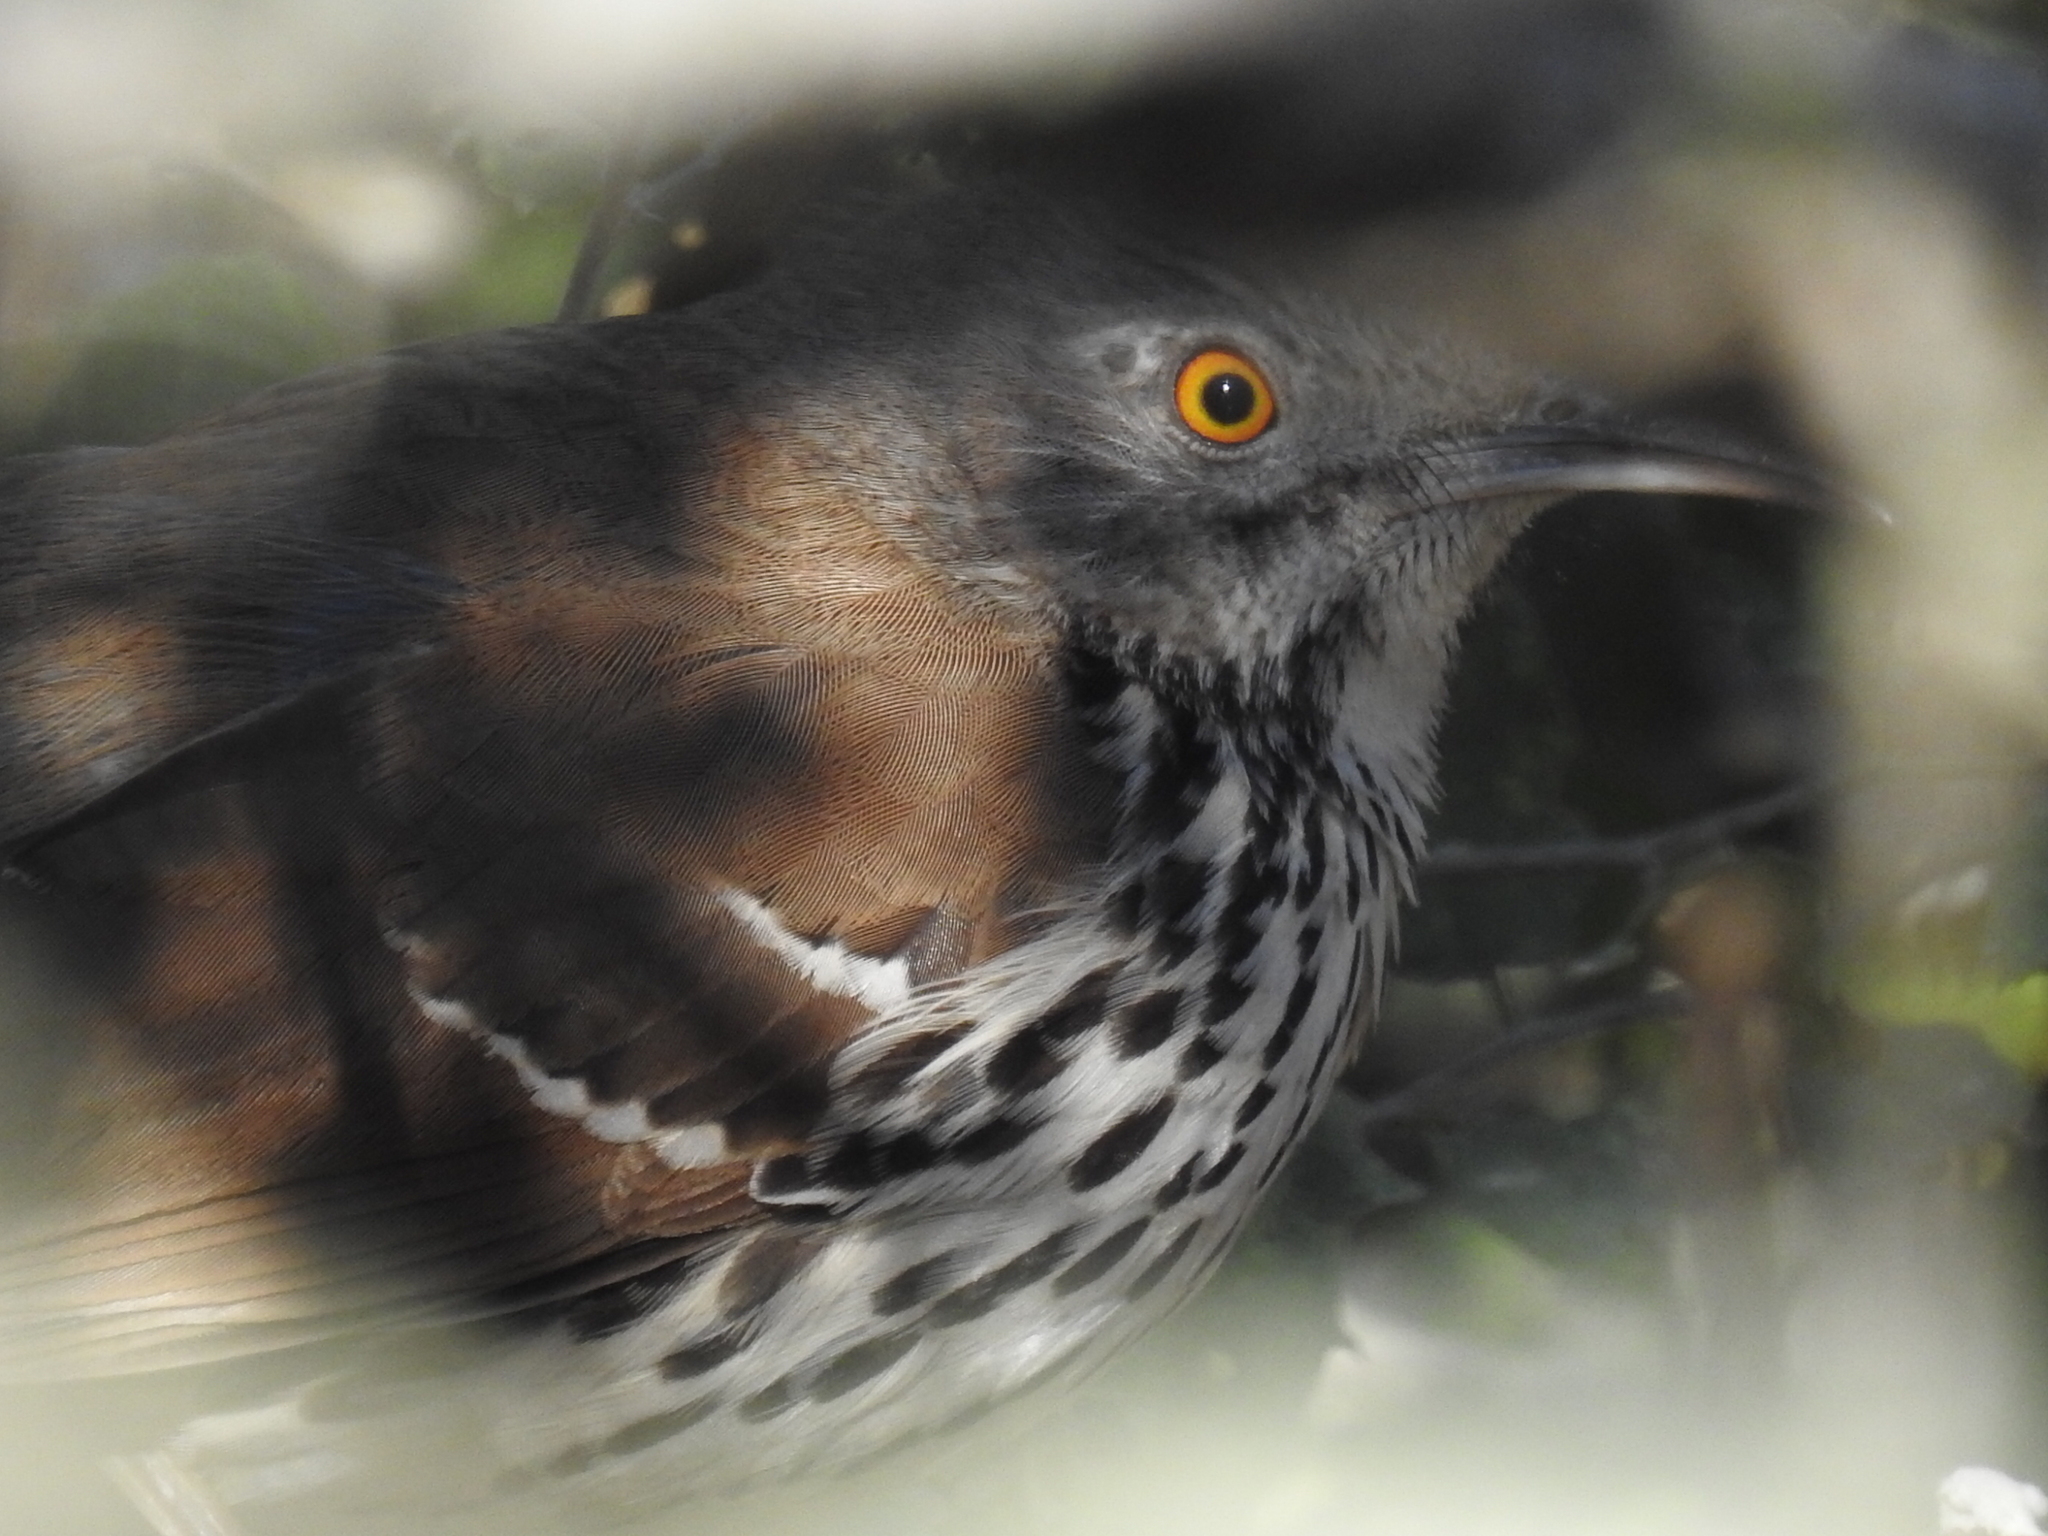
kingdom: Animalia
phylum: Chordata
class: Aves
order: Passeriformes
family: Mimidae
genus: Toxostoma
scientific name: Toxostoma longirostre
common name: Long-billed thrasher
